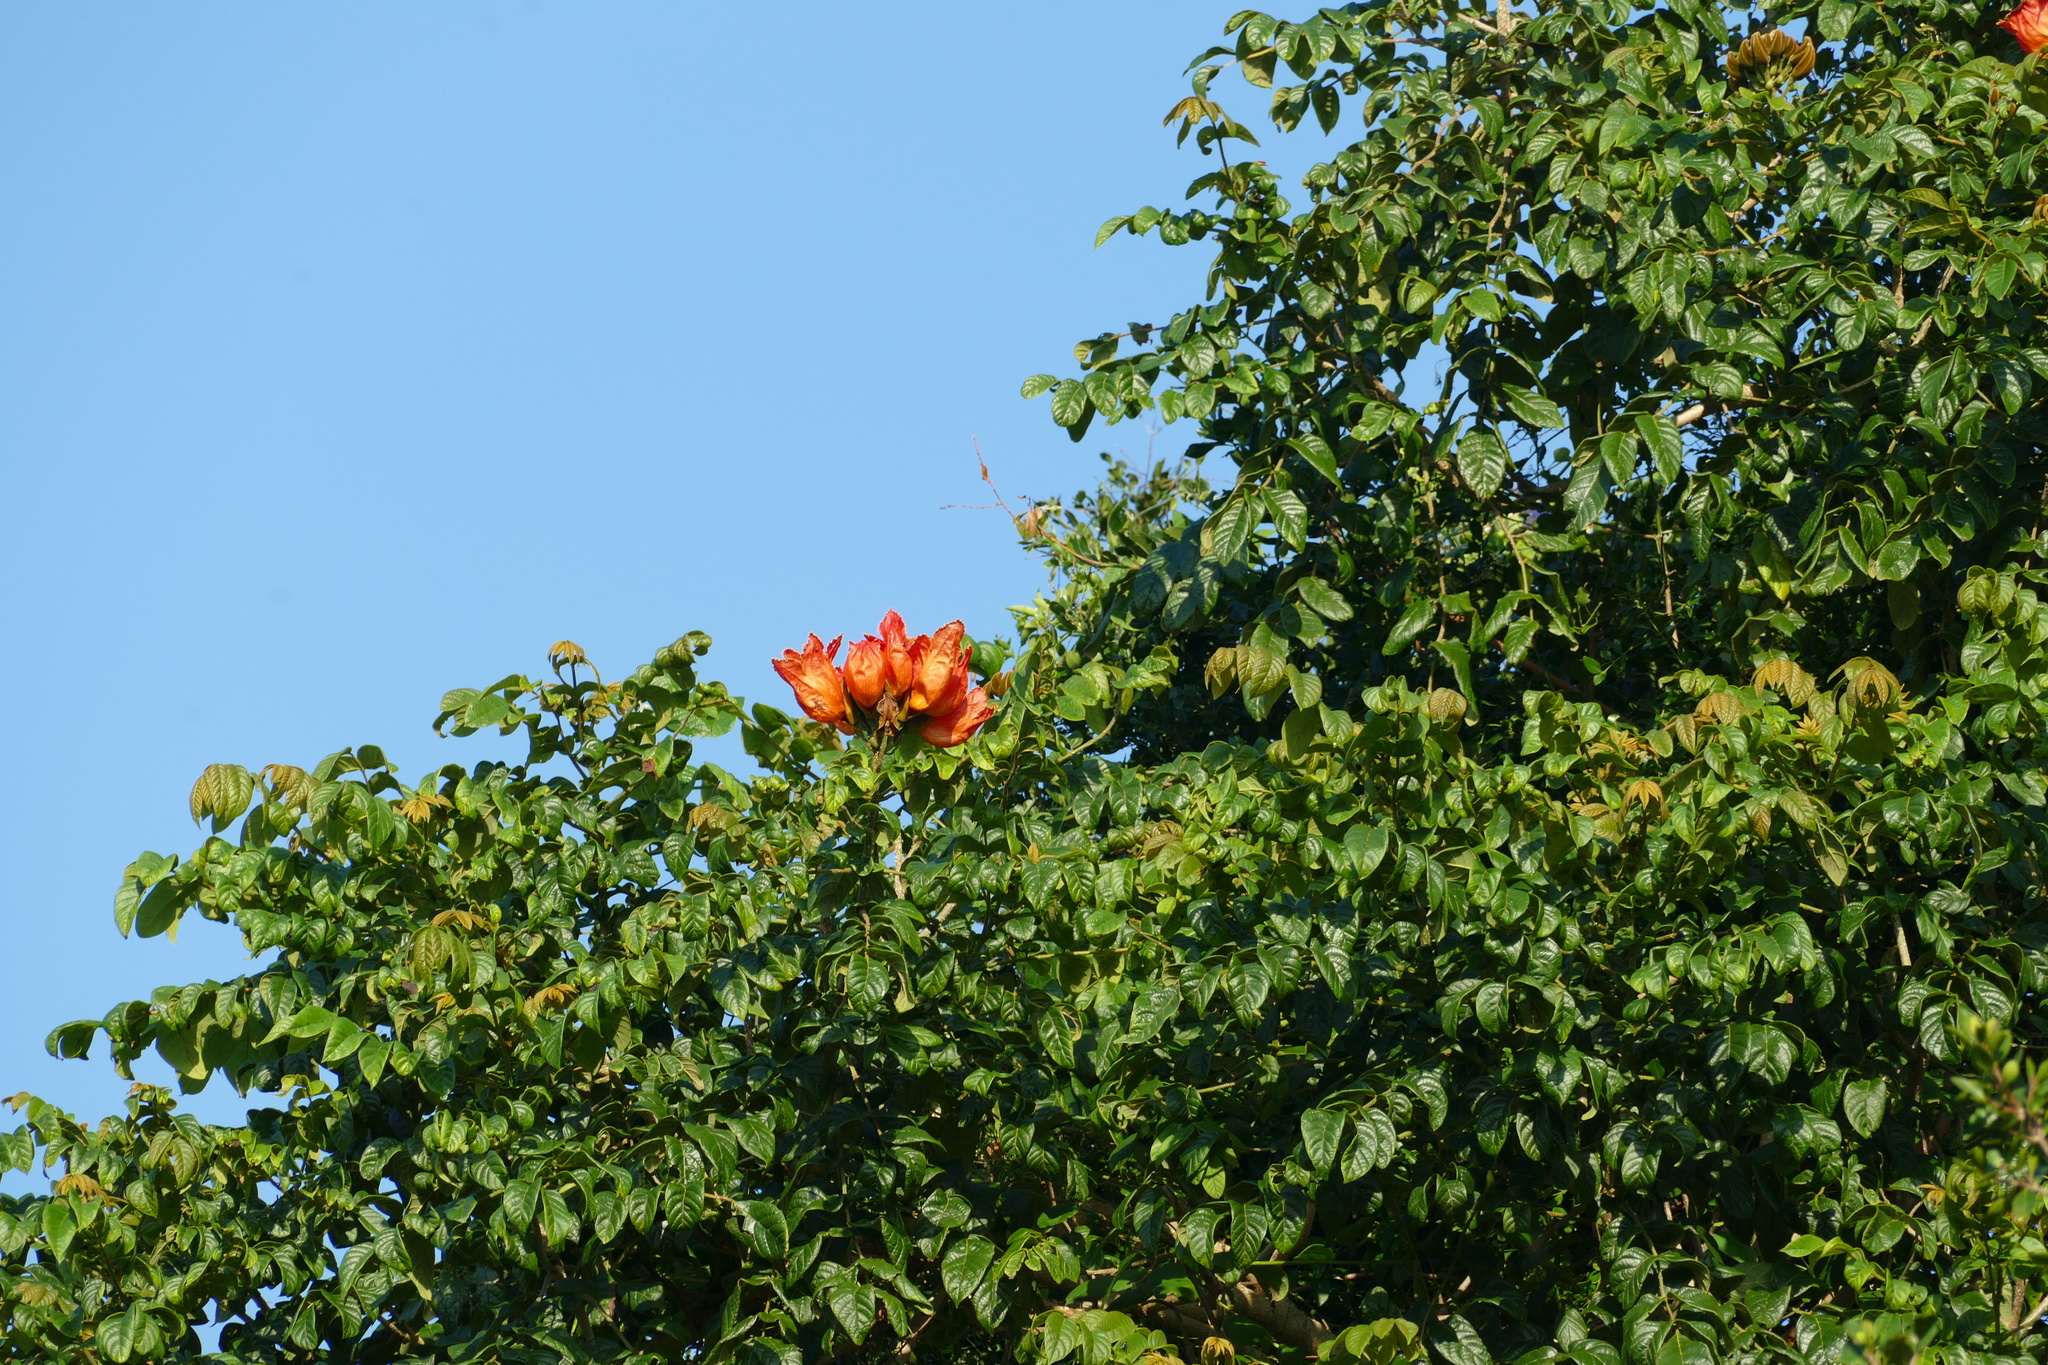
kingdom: Plantae
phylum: Tracheophyta
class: Magnoliopsida
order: Lamiales
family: Bignoniaceae
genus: Spathodea
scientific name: Spathodea campanulata
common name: African tuliptree
